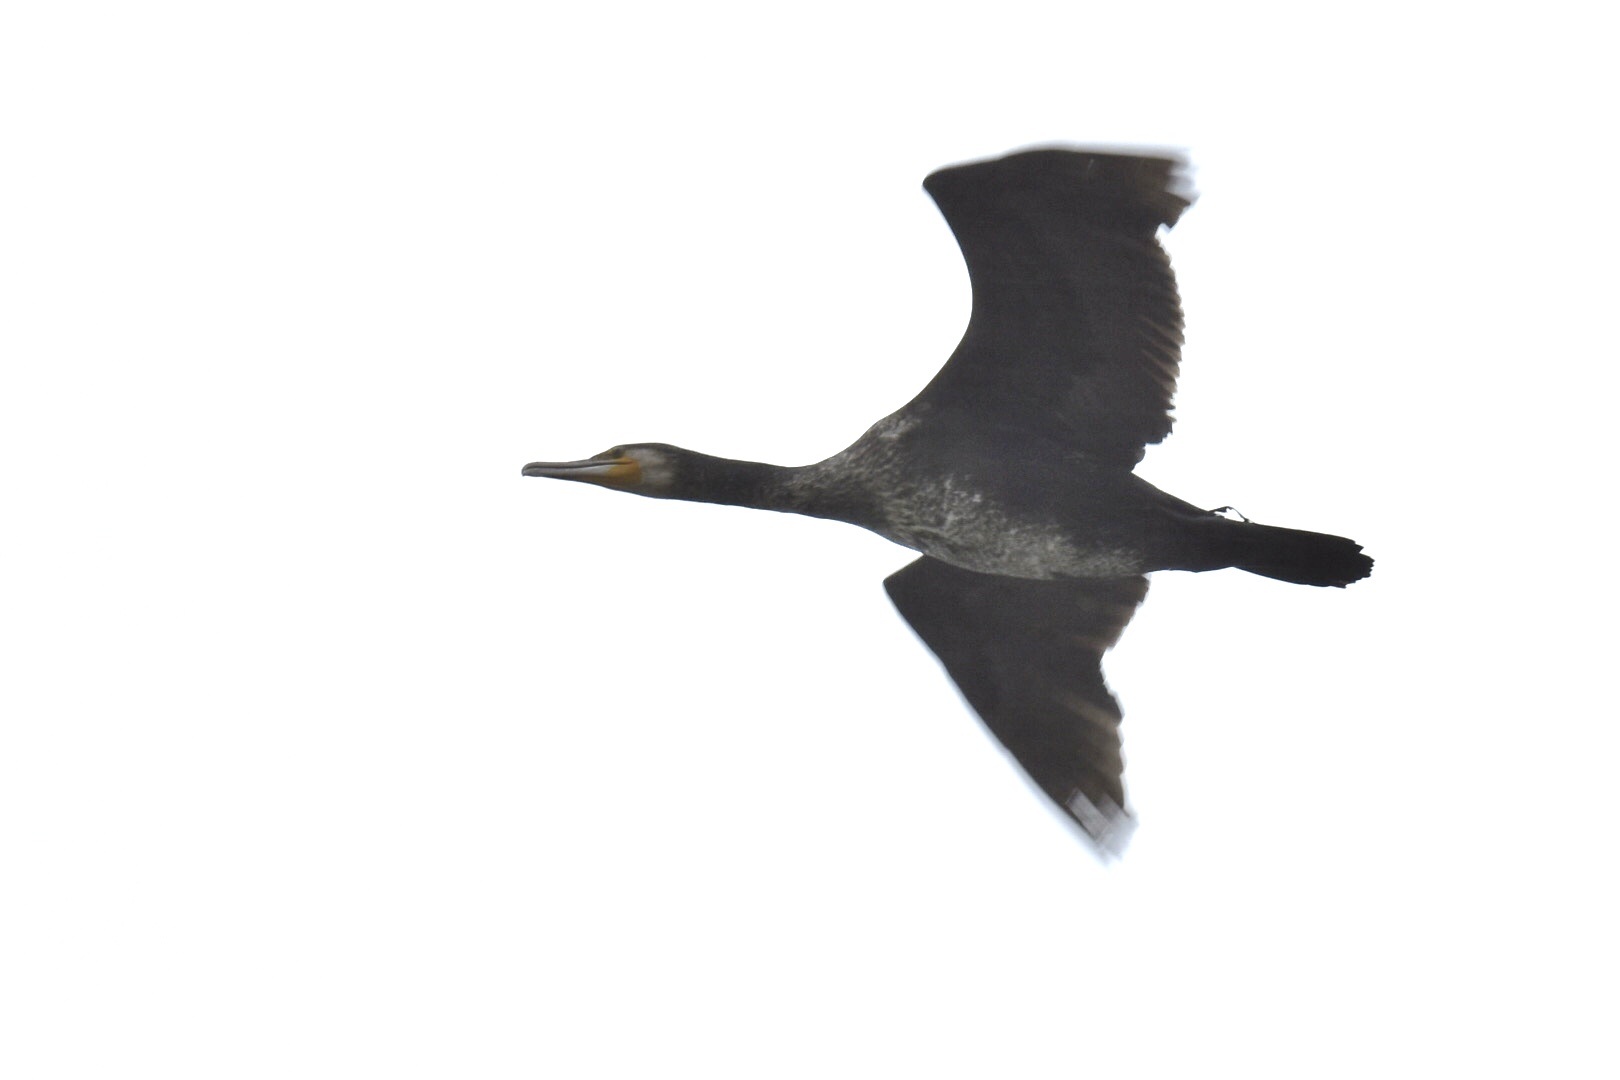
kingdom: Animalia
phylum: Chordata
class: Aves
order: Suliformes
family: Phalacrocoracidae
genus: Phalacrocorax
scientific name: Phalacrocorax carbo
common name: Great cormorant
